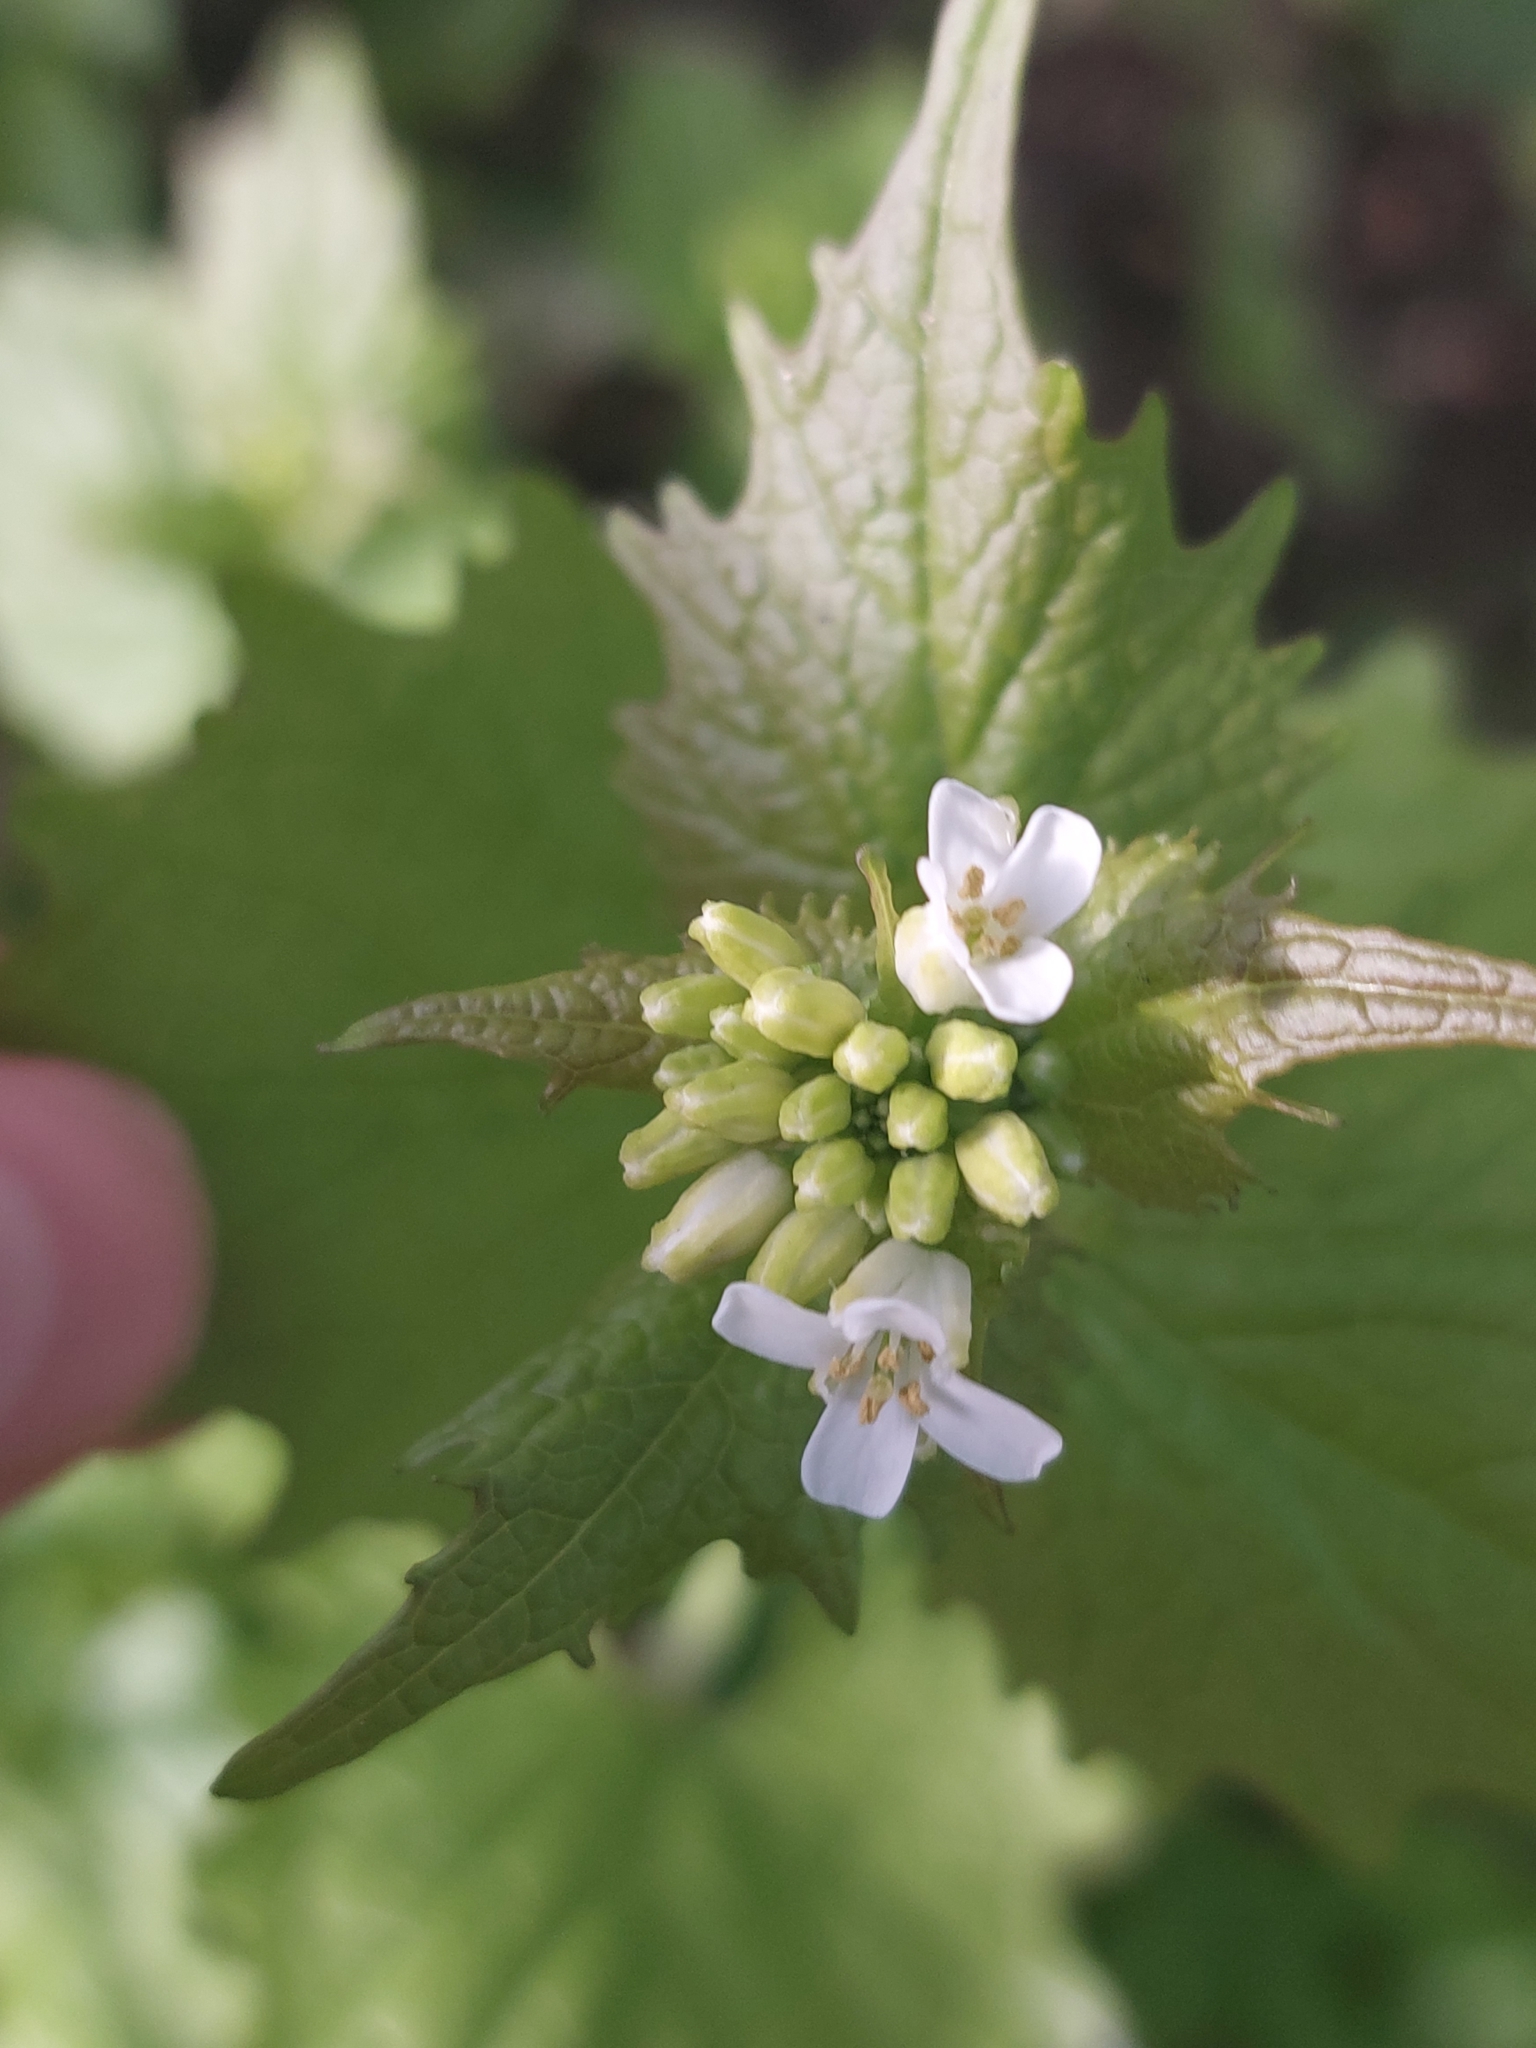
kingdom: Plantae
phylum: Tracheophyta
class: Magnoliopsida
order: Brassicales
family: Brassicaceae
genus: Alliaria
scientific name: Alliaria petiolata
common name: Garlic mustard
